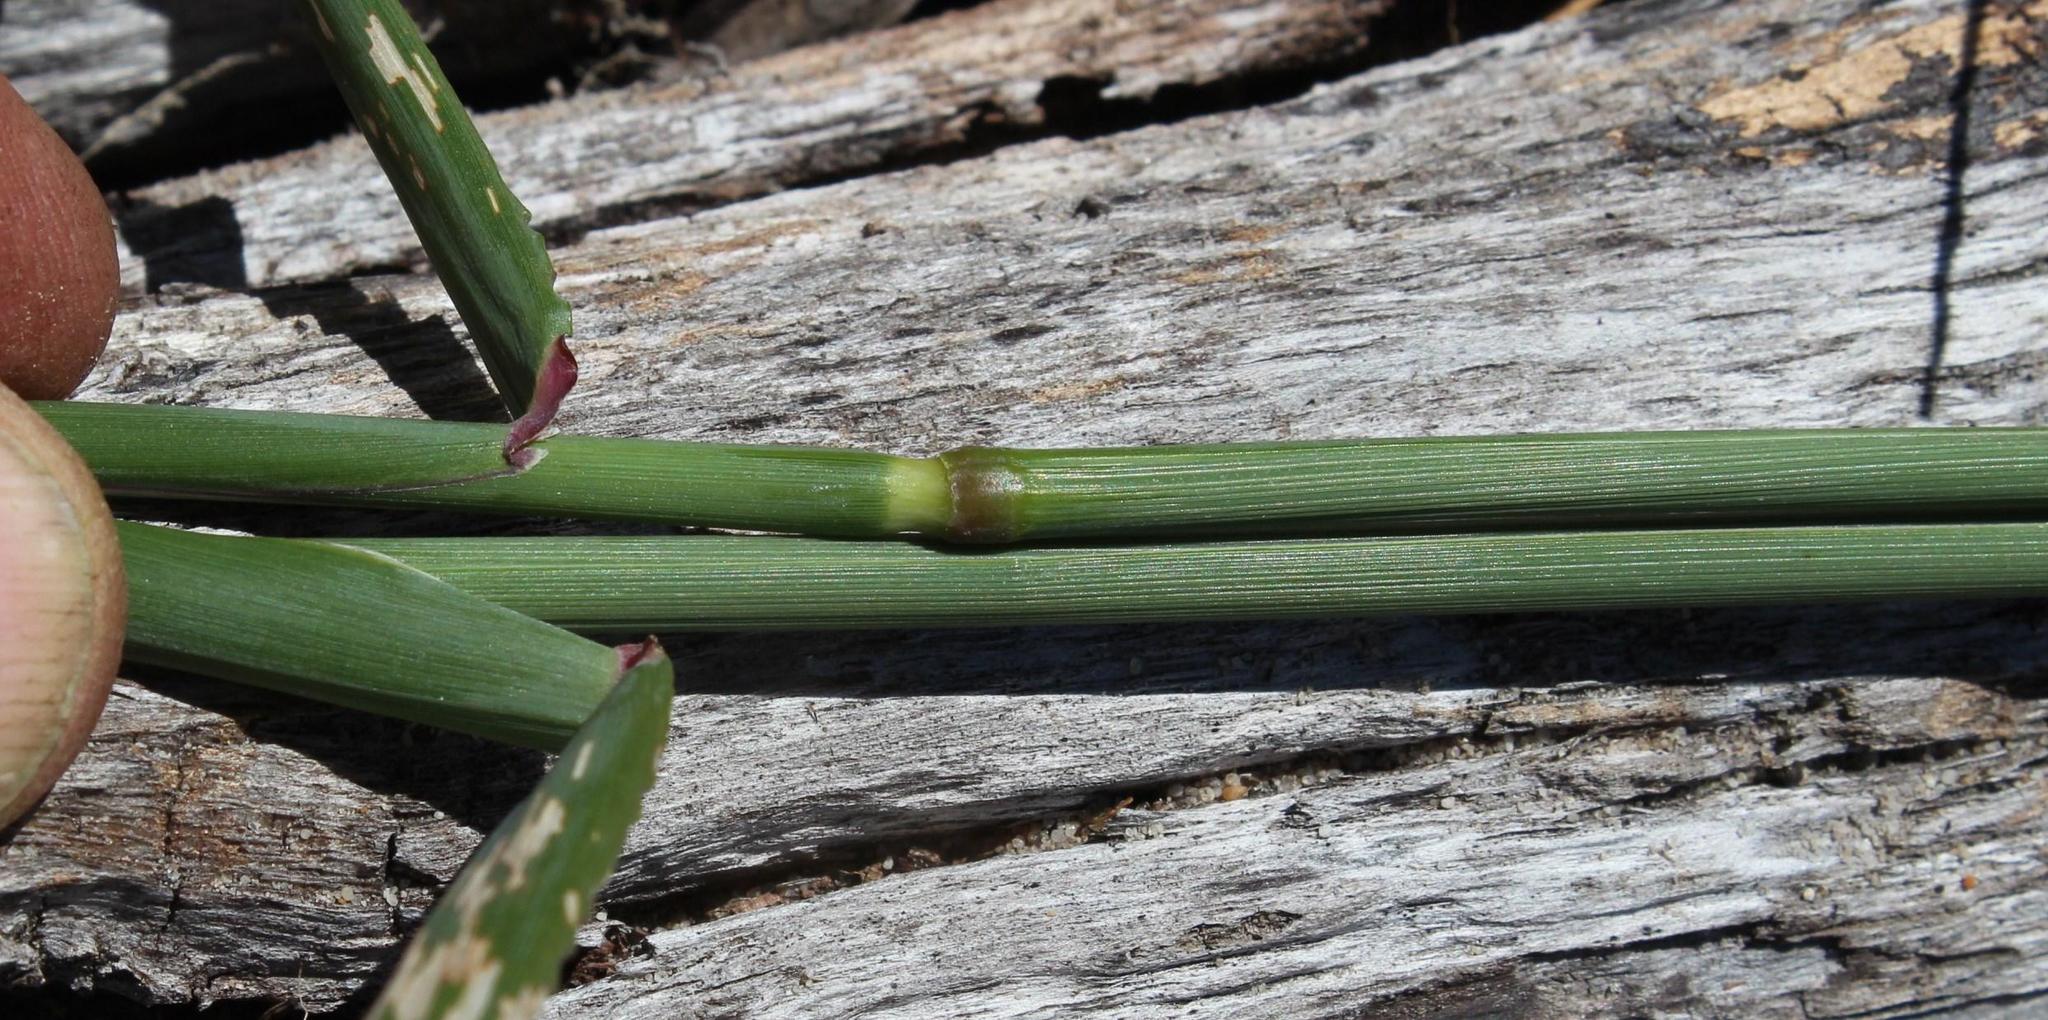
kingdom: Plantae
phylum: Tracheophyta
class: Liliopsida
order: Poales
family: Poaceae
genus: Ehrharta
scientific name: Ehrharta calycina
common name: Perennial veldtgrass
